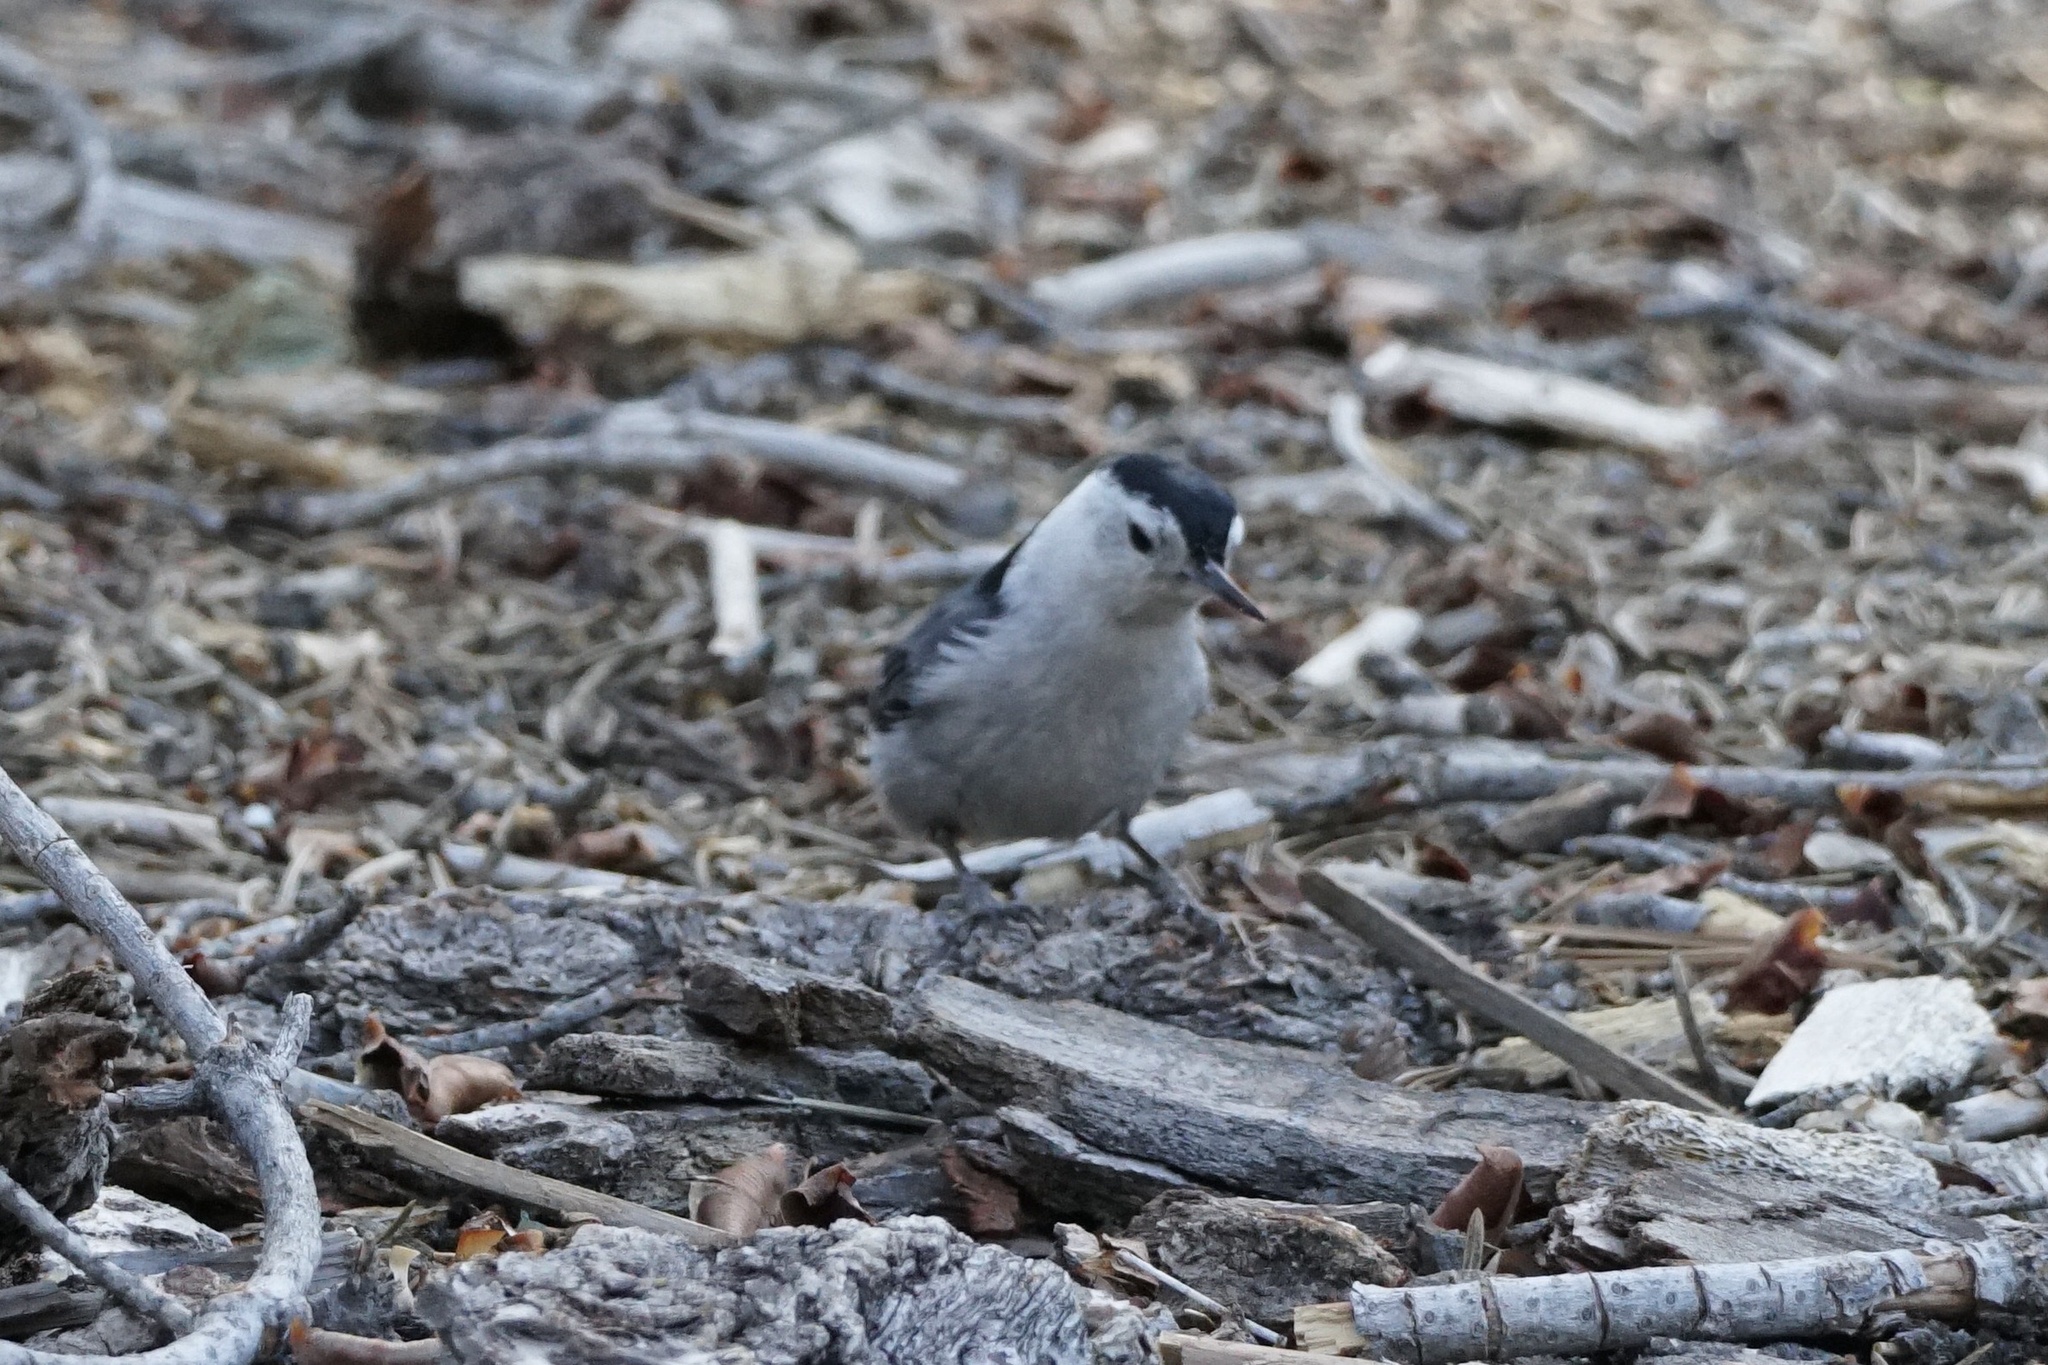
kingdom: Animalia
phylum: Chordata
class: Aves
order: Passeriformes
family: Sittidae
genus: Sitta
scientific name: Sitta carolinensis
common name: White-breasted nuthatch
